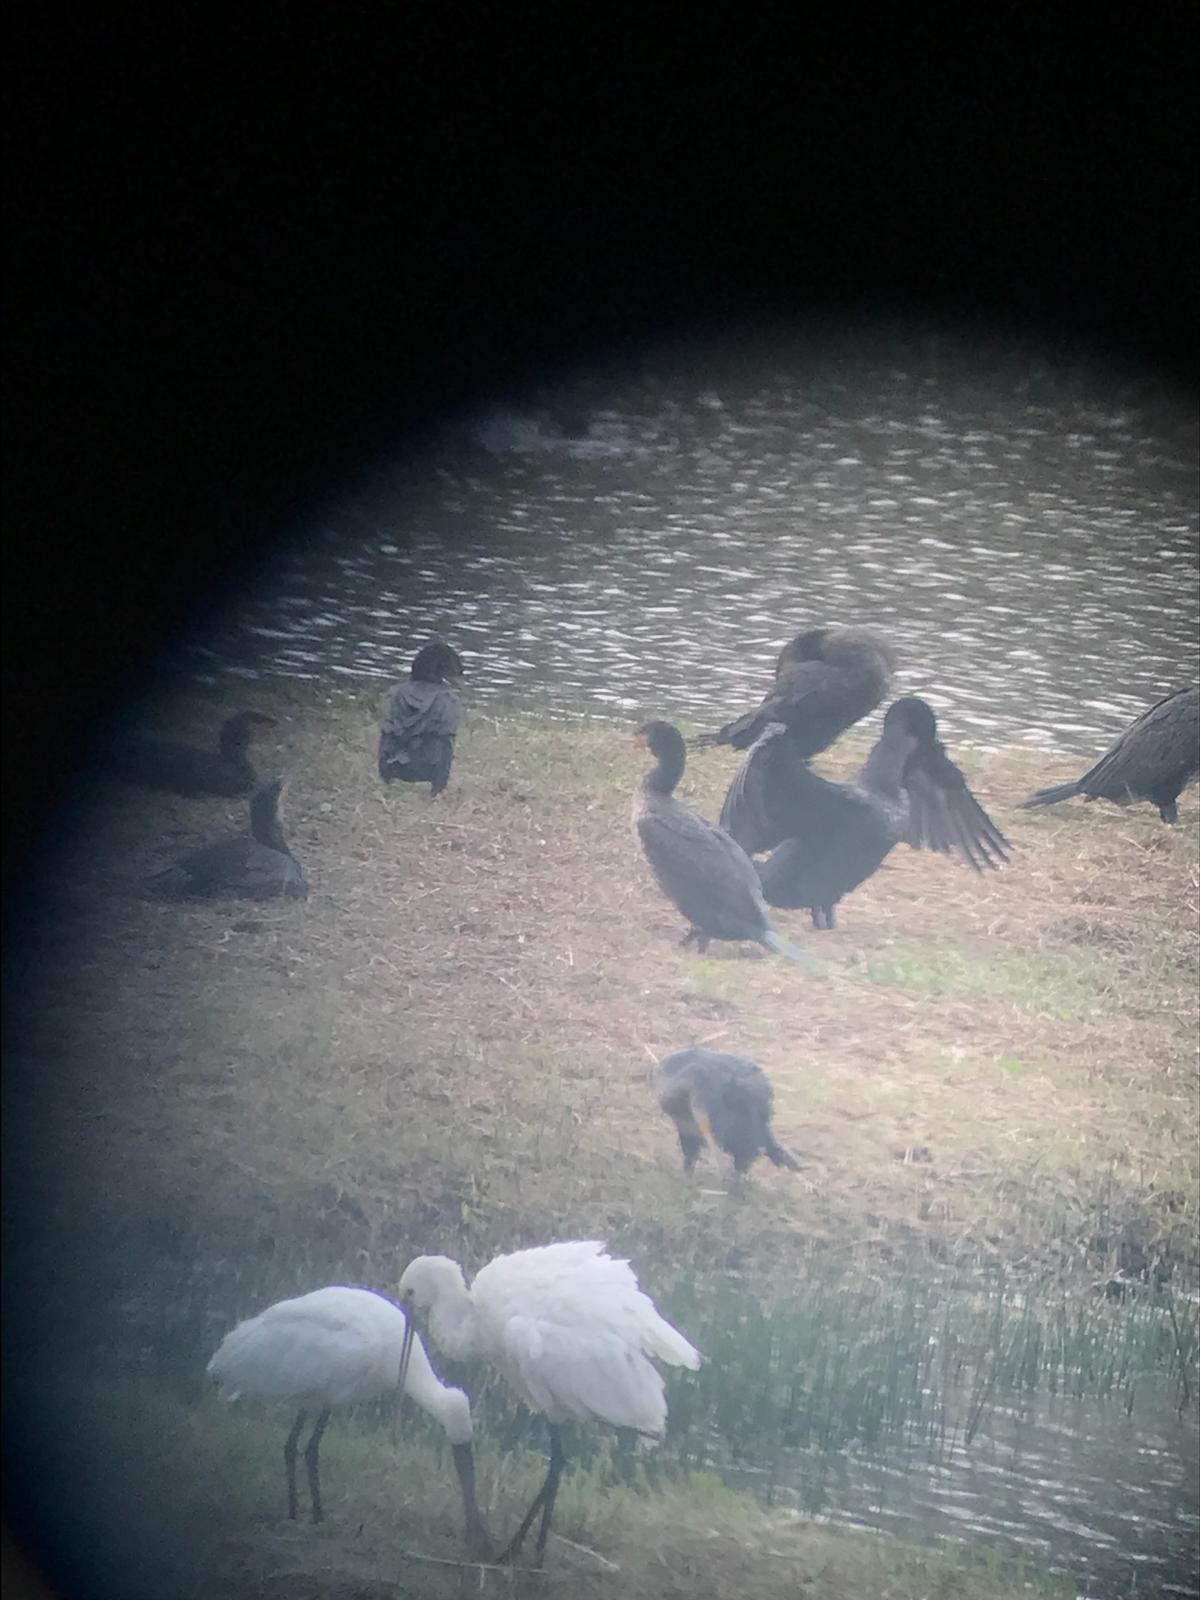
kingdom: Animalia
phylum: Chordata
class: Aves
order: Pelecaniformes
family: Threskiornithidae
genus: Platalea
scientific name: Platalea leucorodia
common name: Eurasian spoonbill
